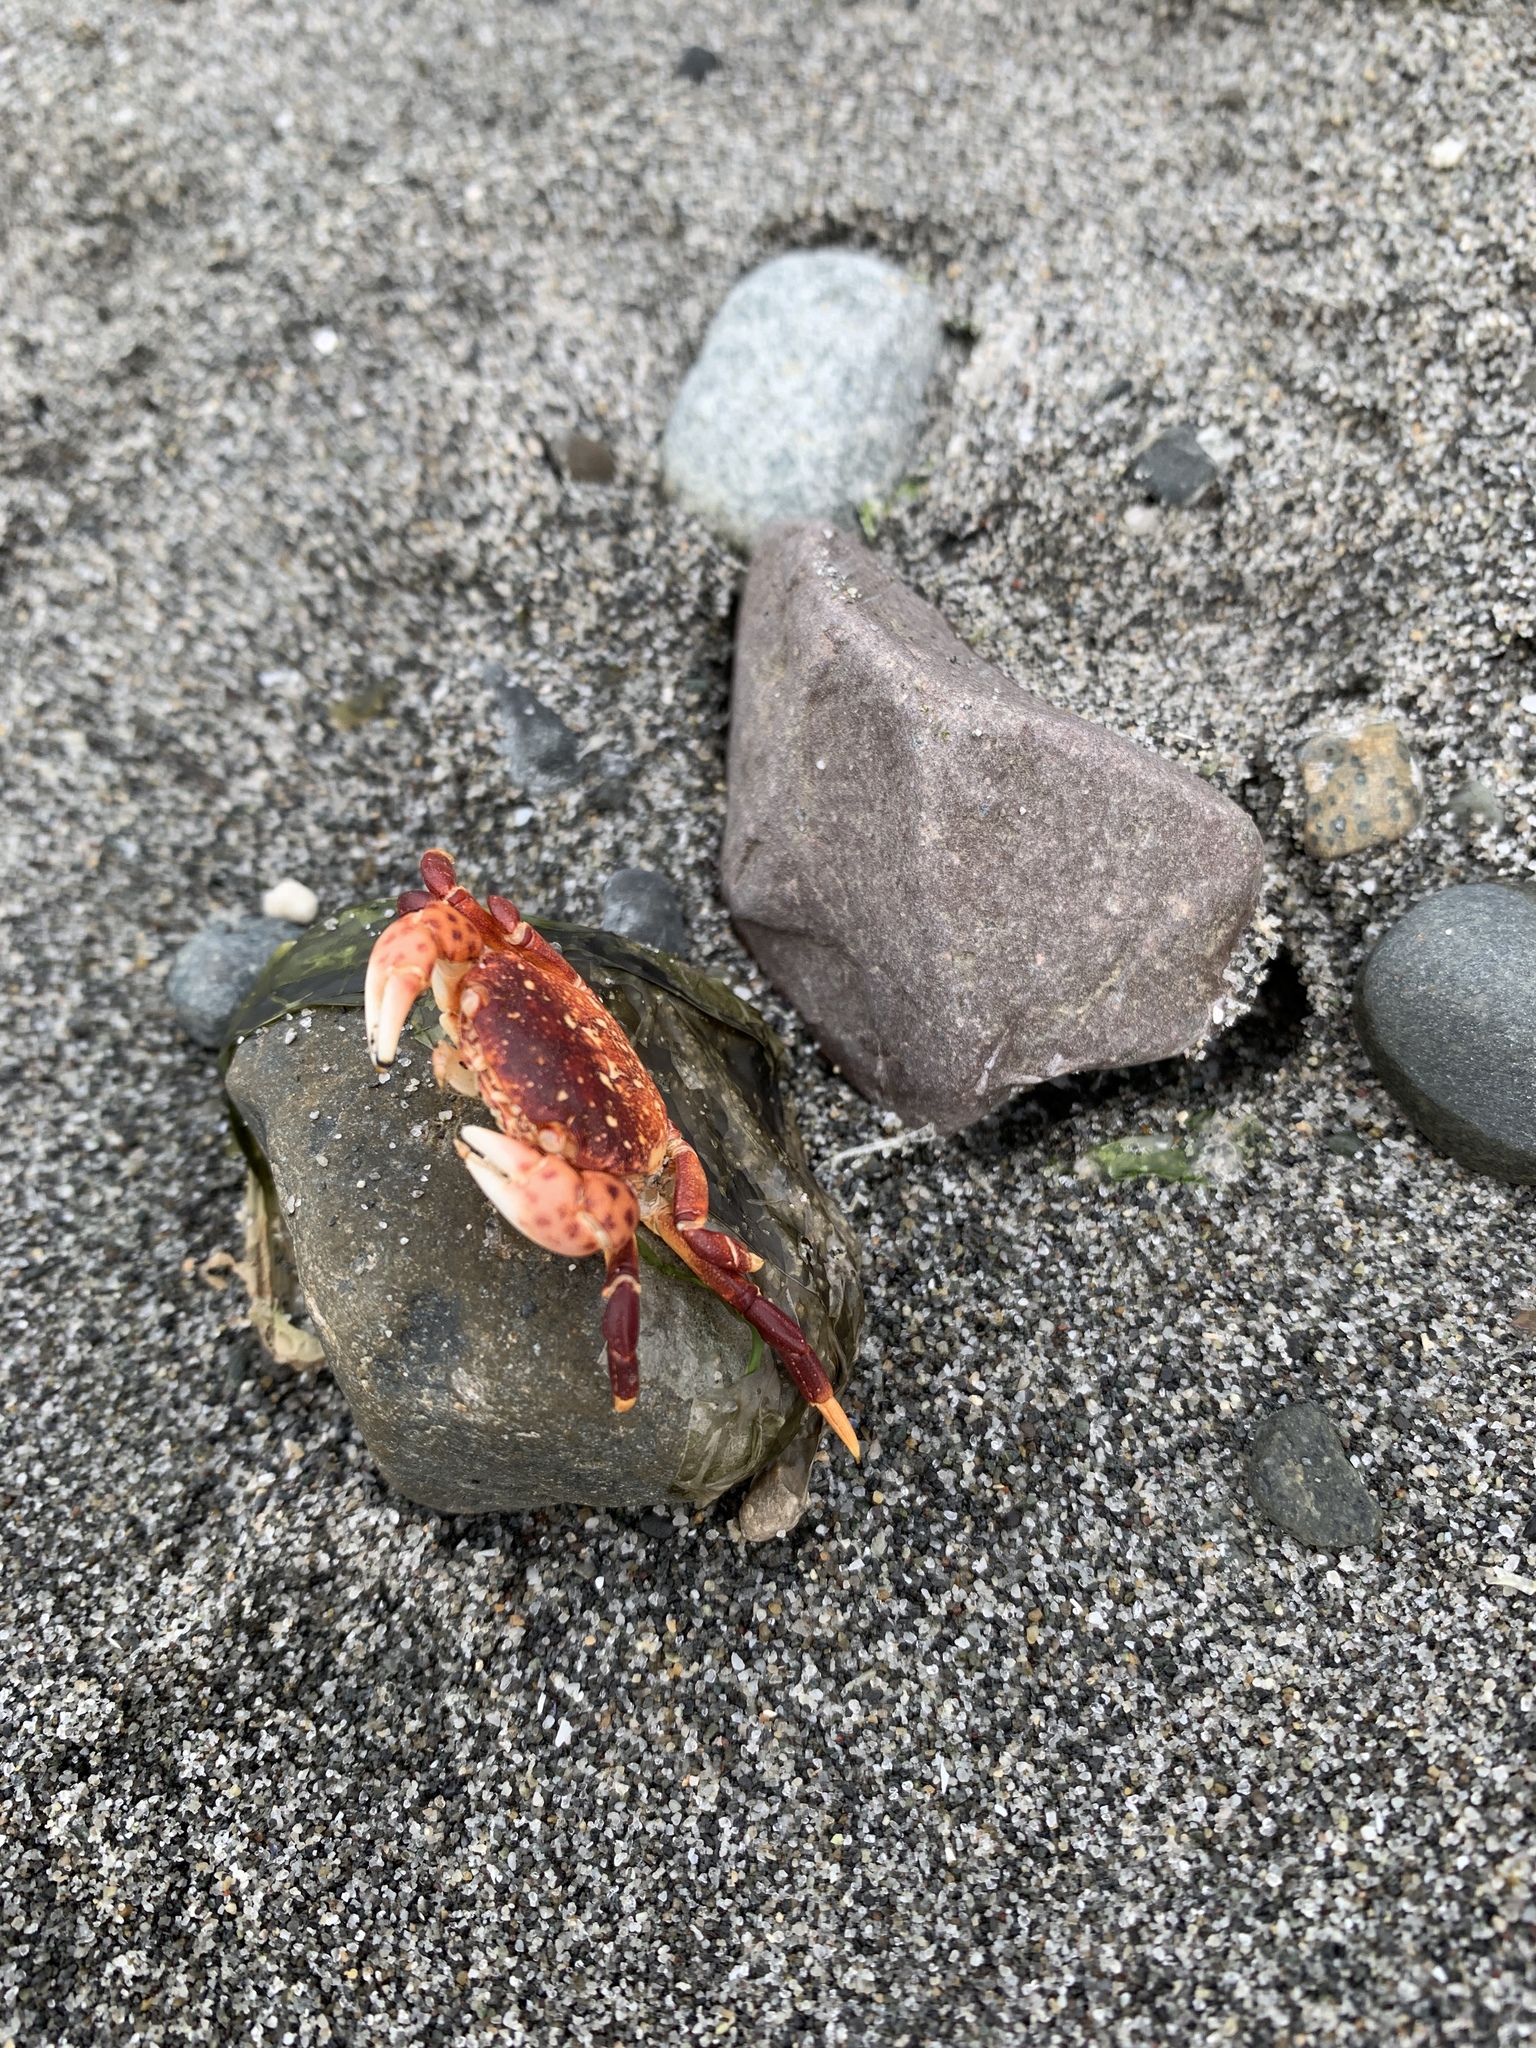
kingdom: Animalia
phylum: Arthropoda
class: Malacostraca
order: Decapoda
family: Varunidae
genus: Hemigrapsus
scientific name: Hemigrapsus nudus
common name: Purple shore crab
